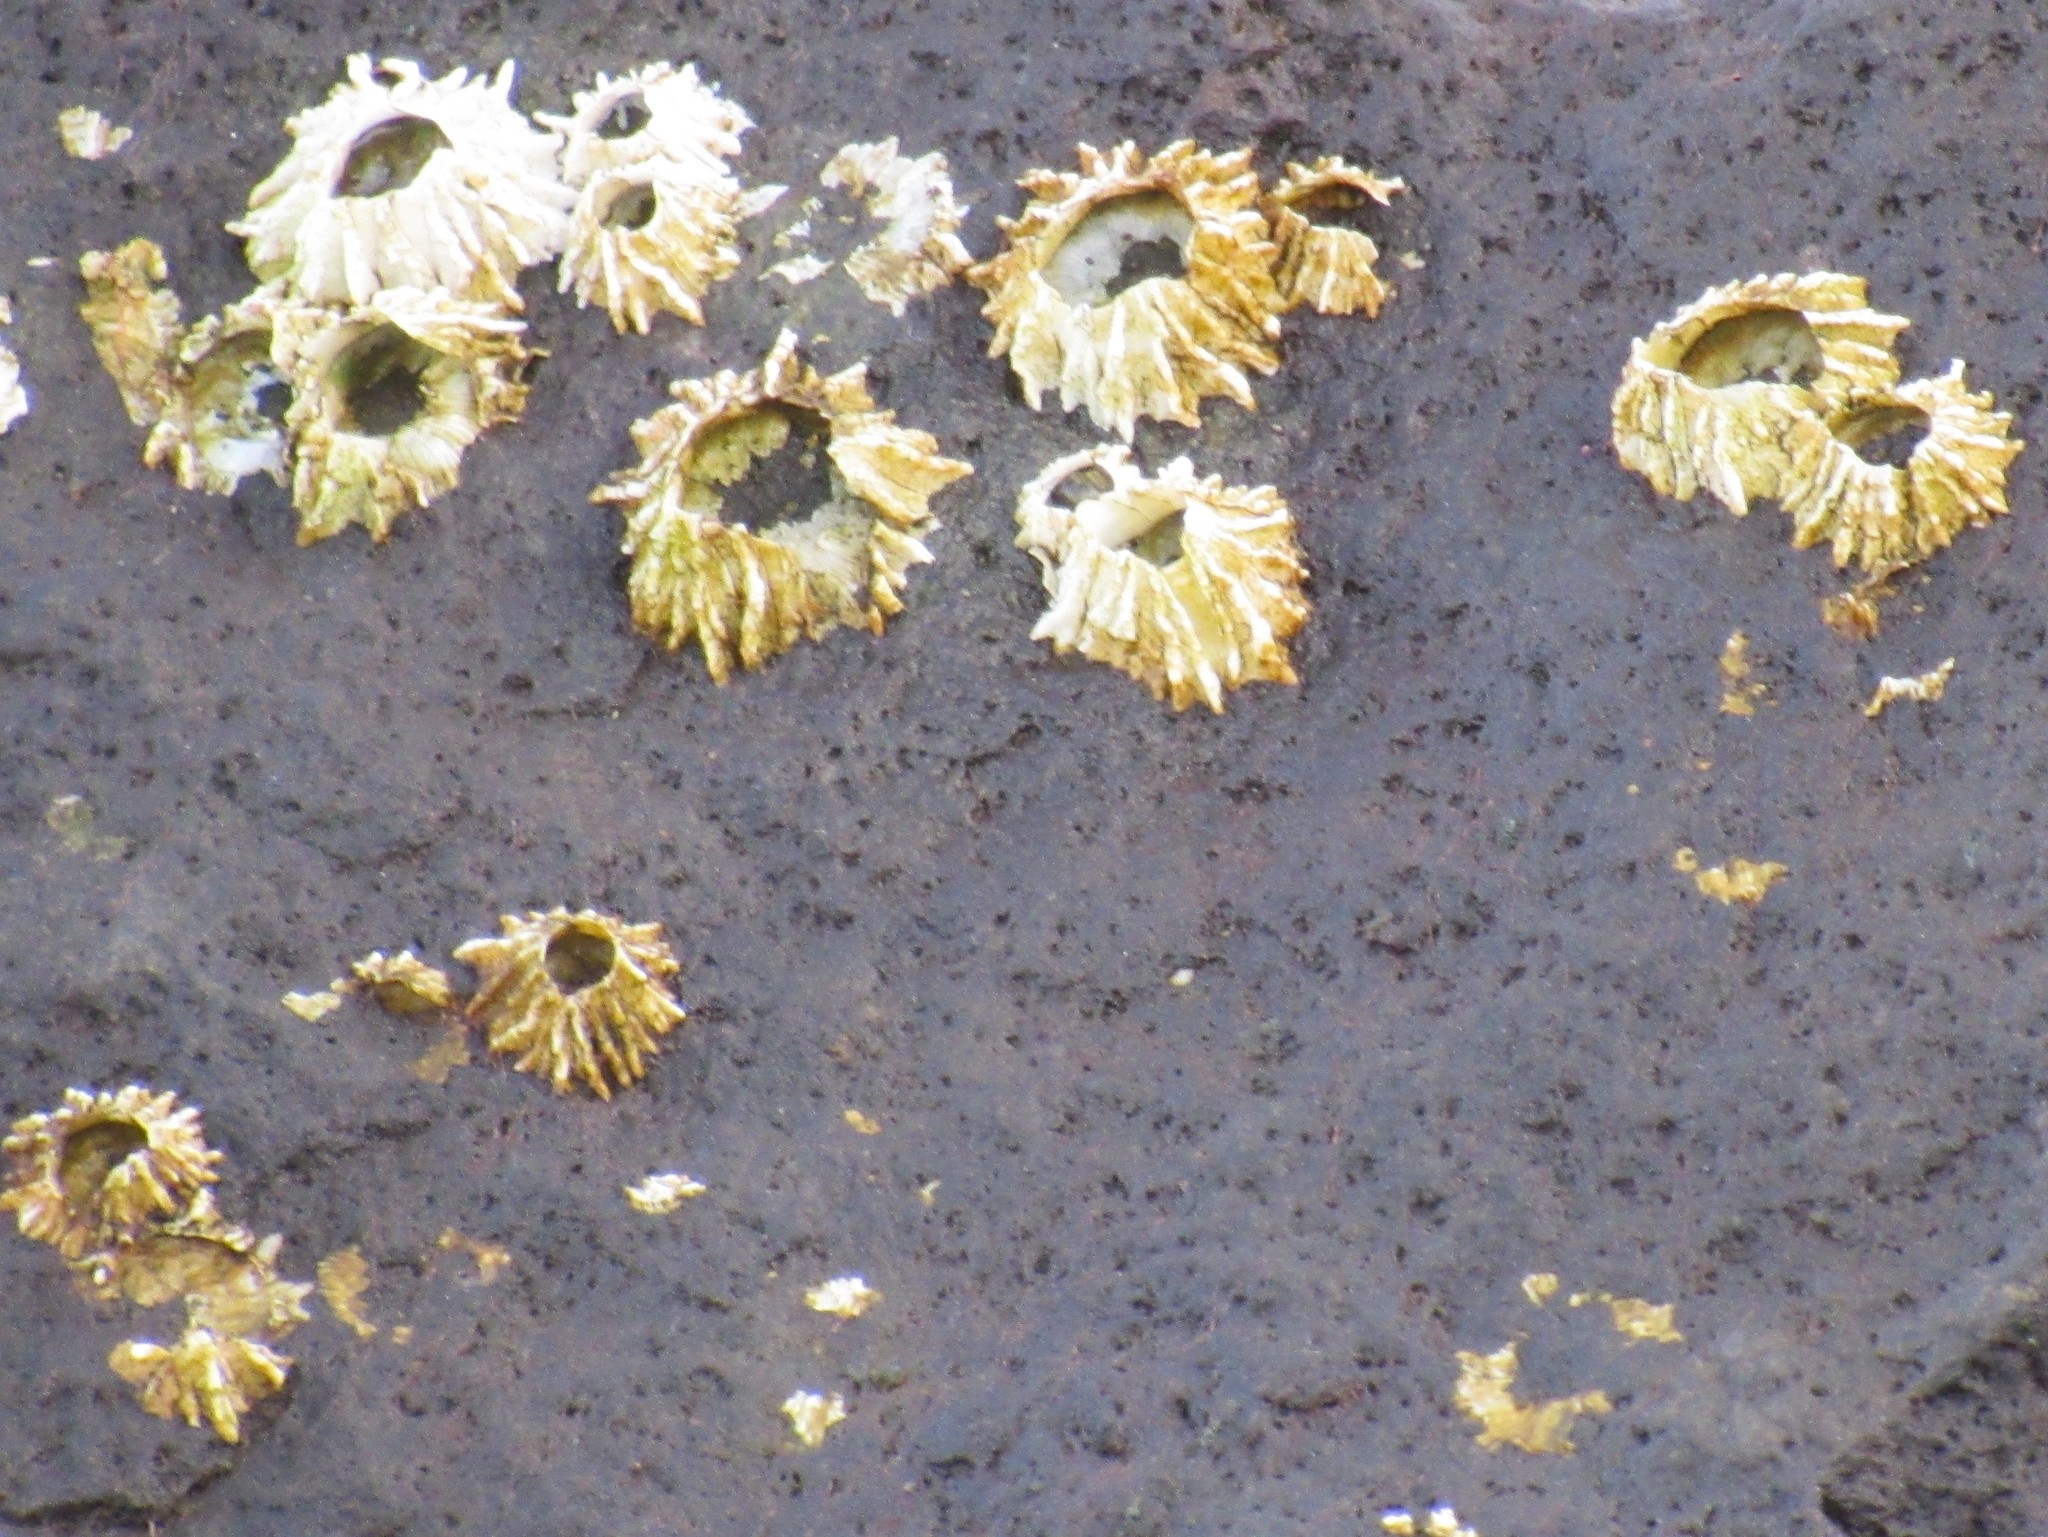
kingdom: Animalia
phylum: Arthropoda
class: Maxillopoda
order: Sessilia
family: Balanidae
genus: Balanus
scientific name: Balanus balanus
